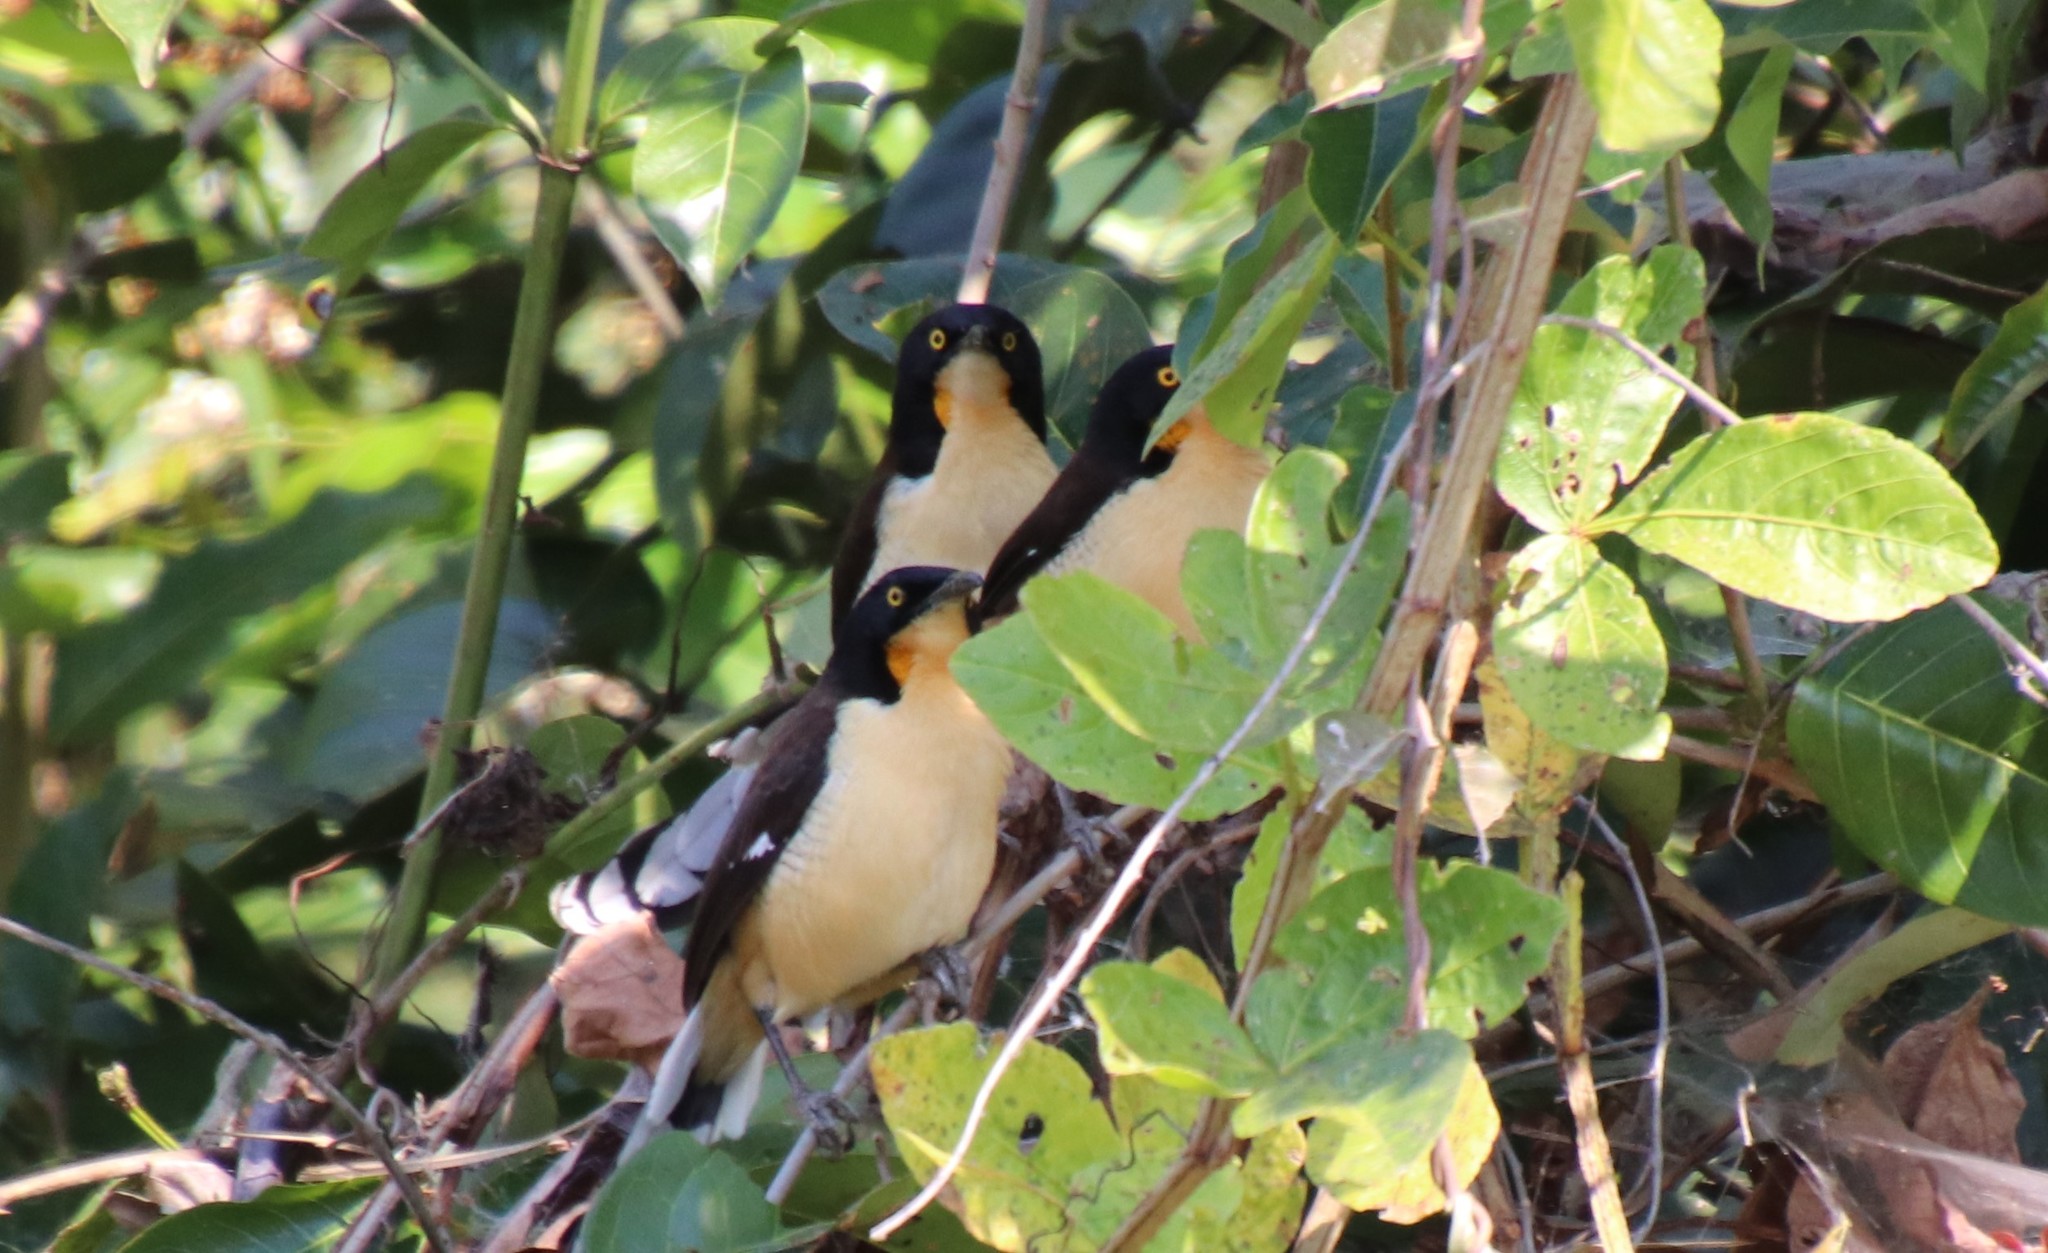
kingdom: Animalia
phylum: Chordata
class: Aves
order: Passeriformes
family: Donacobiidae
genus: Donacobius
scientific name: Donacobius atricapilla
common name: Black-capped donacobius
